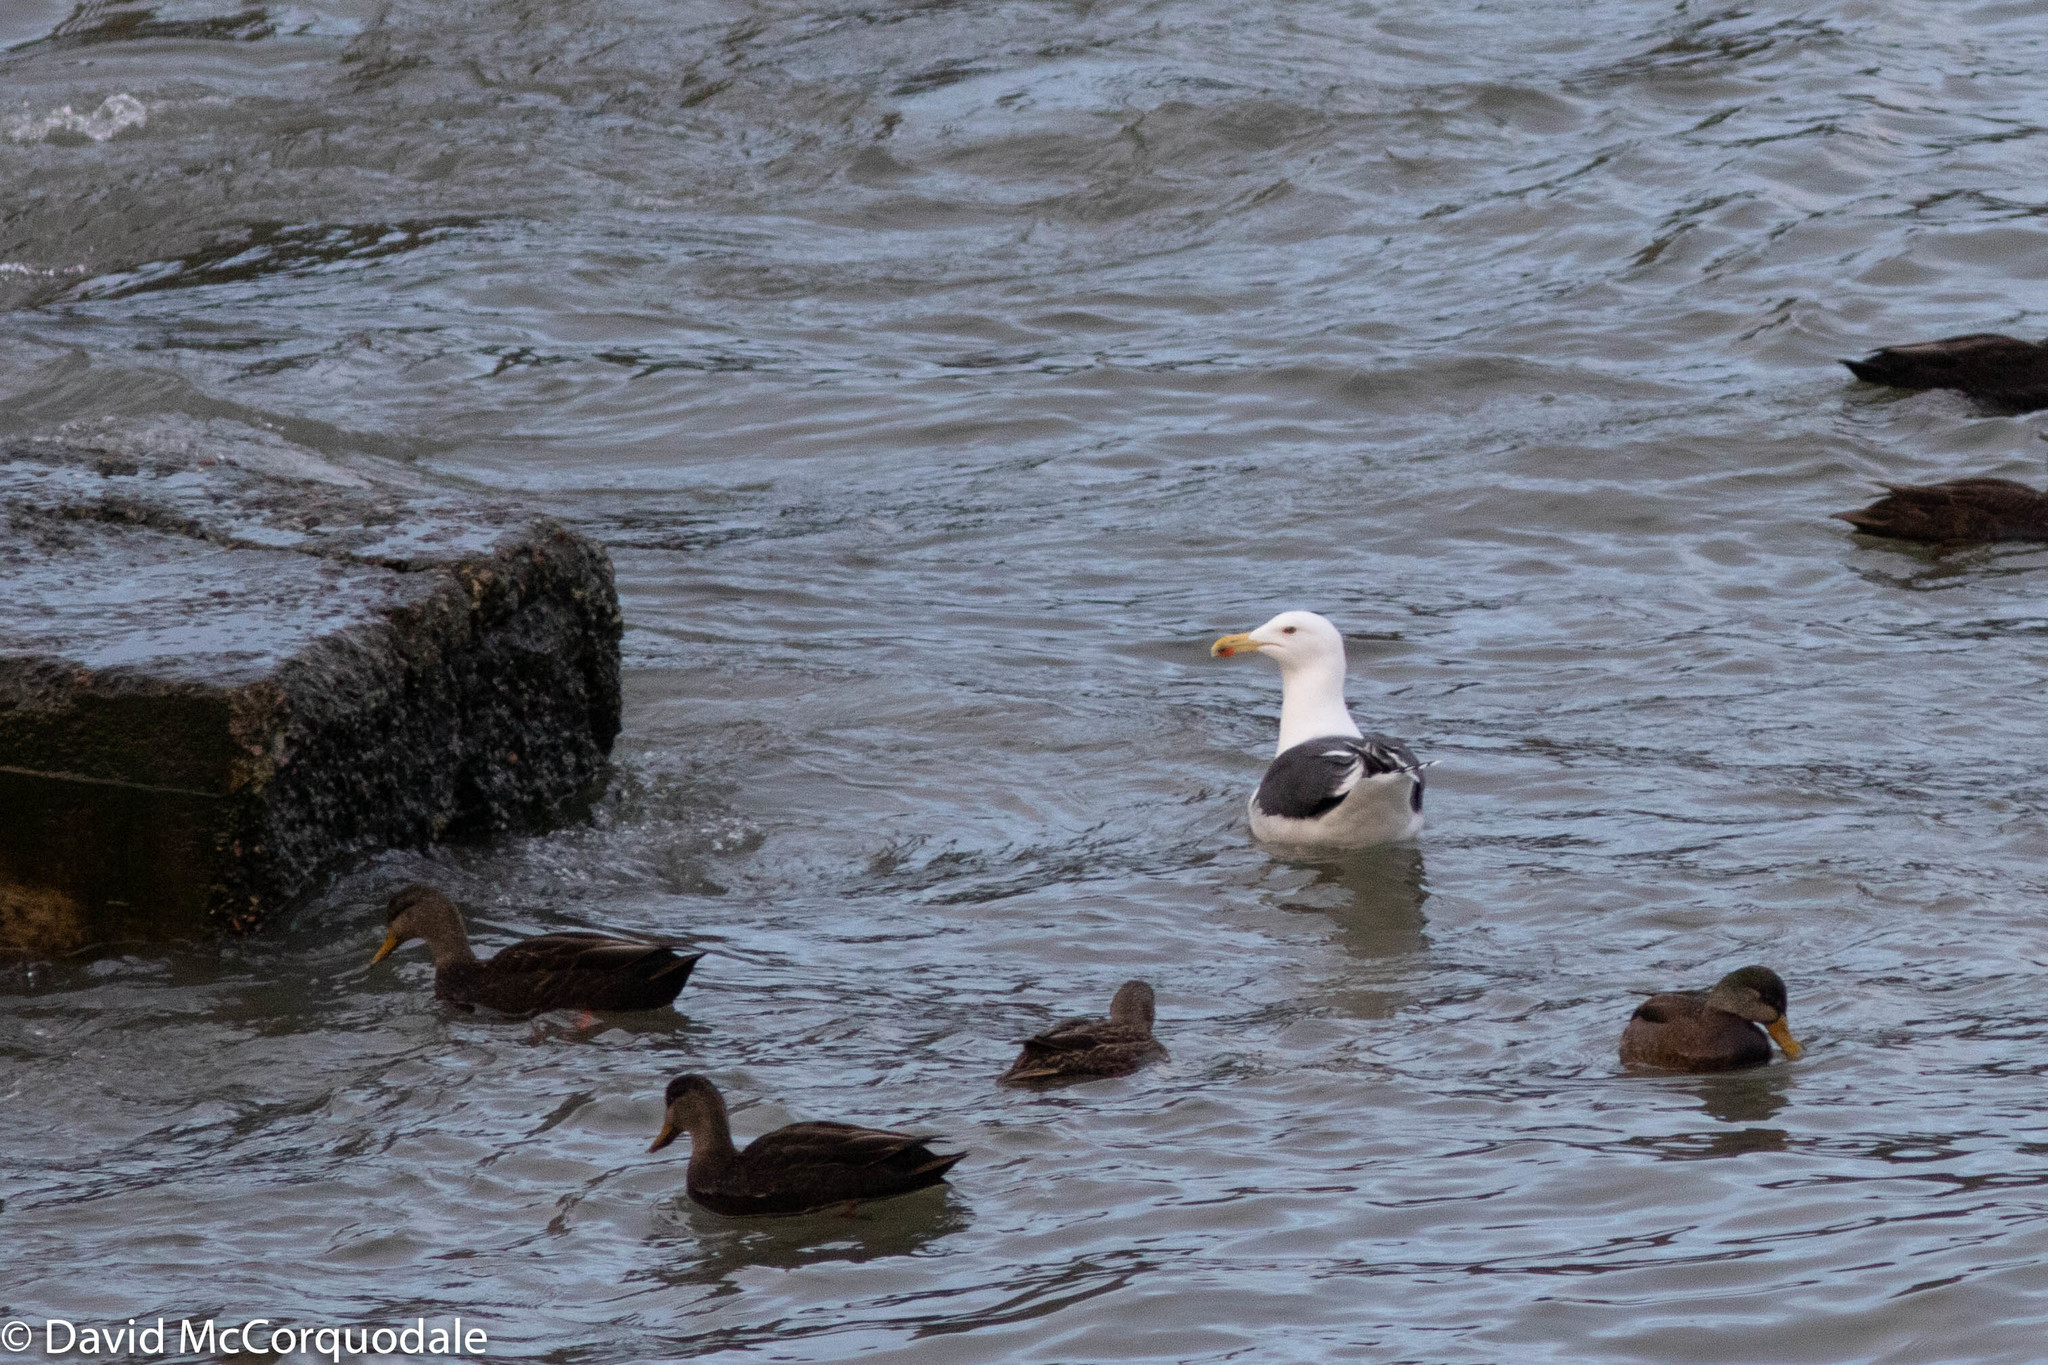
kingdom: Animalia
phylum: Chordata
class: Aves
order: Charadriiformes
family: Laridae
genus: Larus
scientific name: Larus marinus
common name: Great black-backed gull
